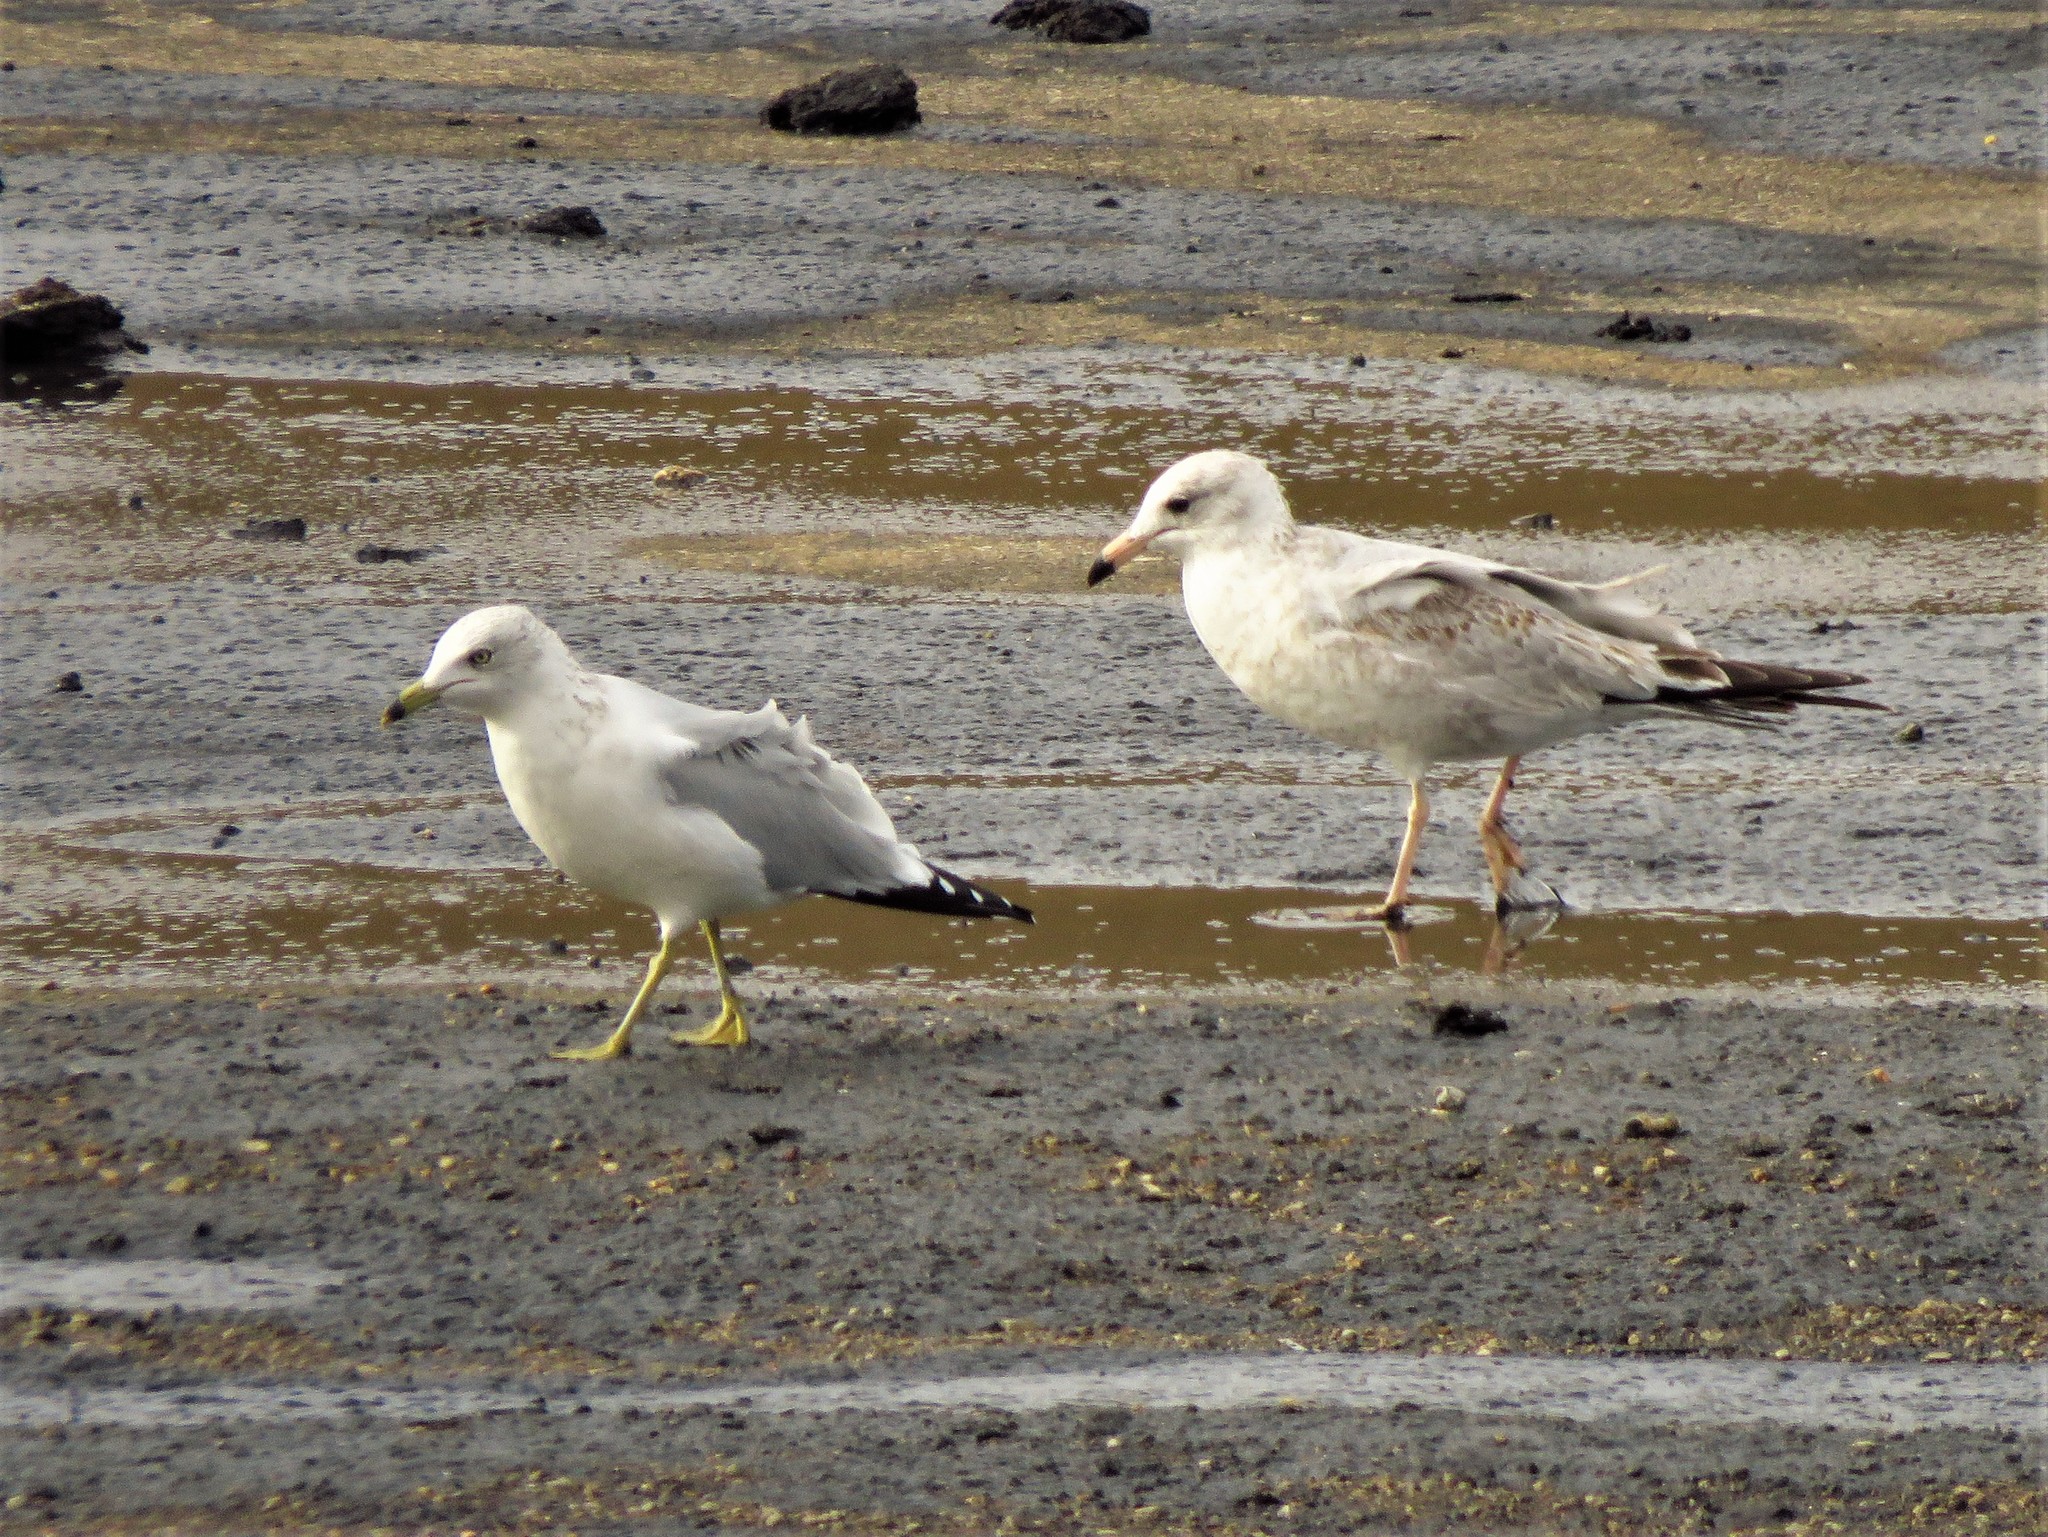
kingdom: Animalia
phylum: Chordata
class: Aves
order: Charadriiformes
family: Laridae
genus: Larus
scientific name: Larus delawarensis
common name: Ring-billed gull
